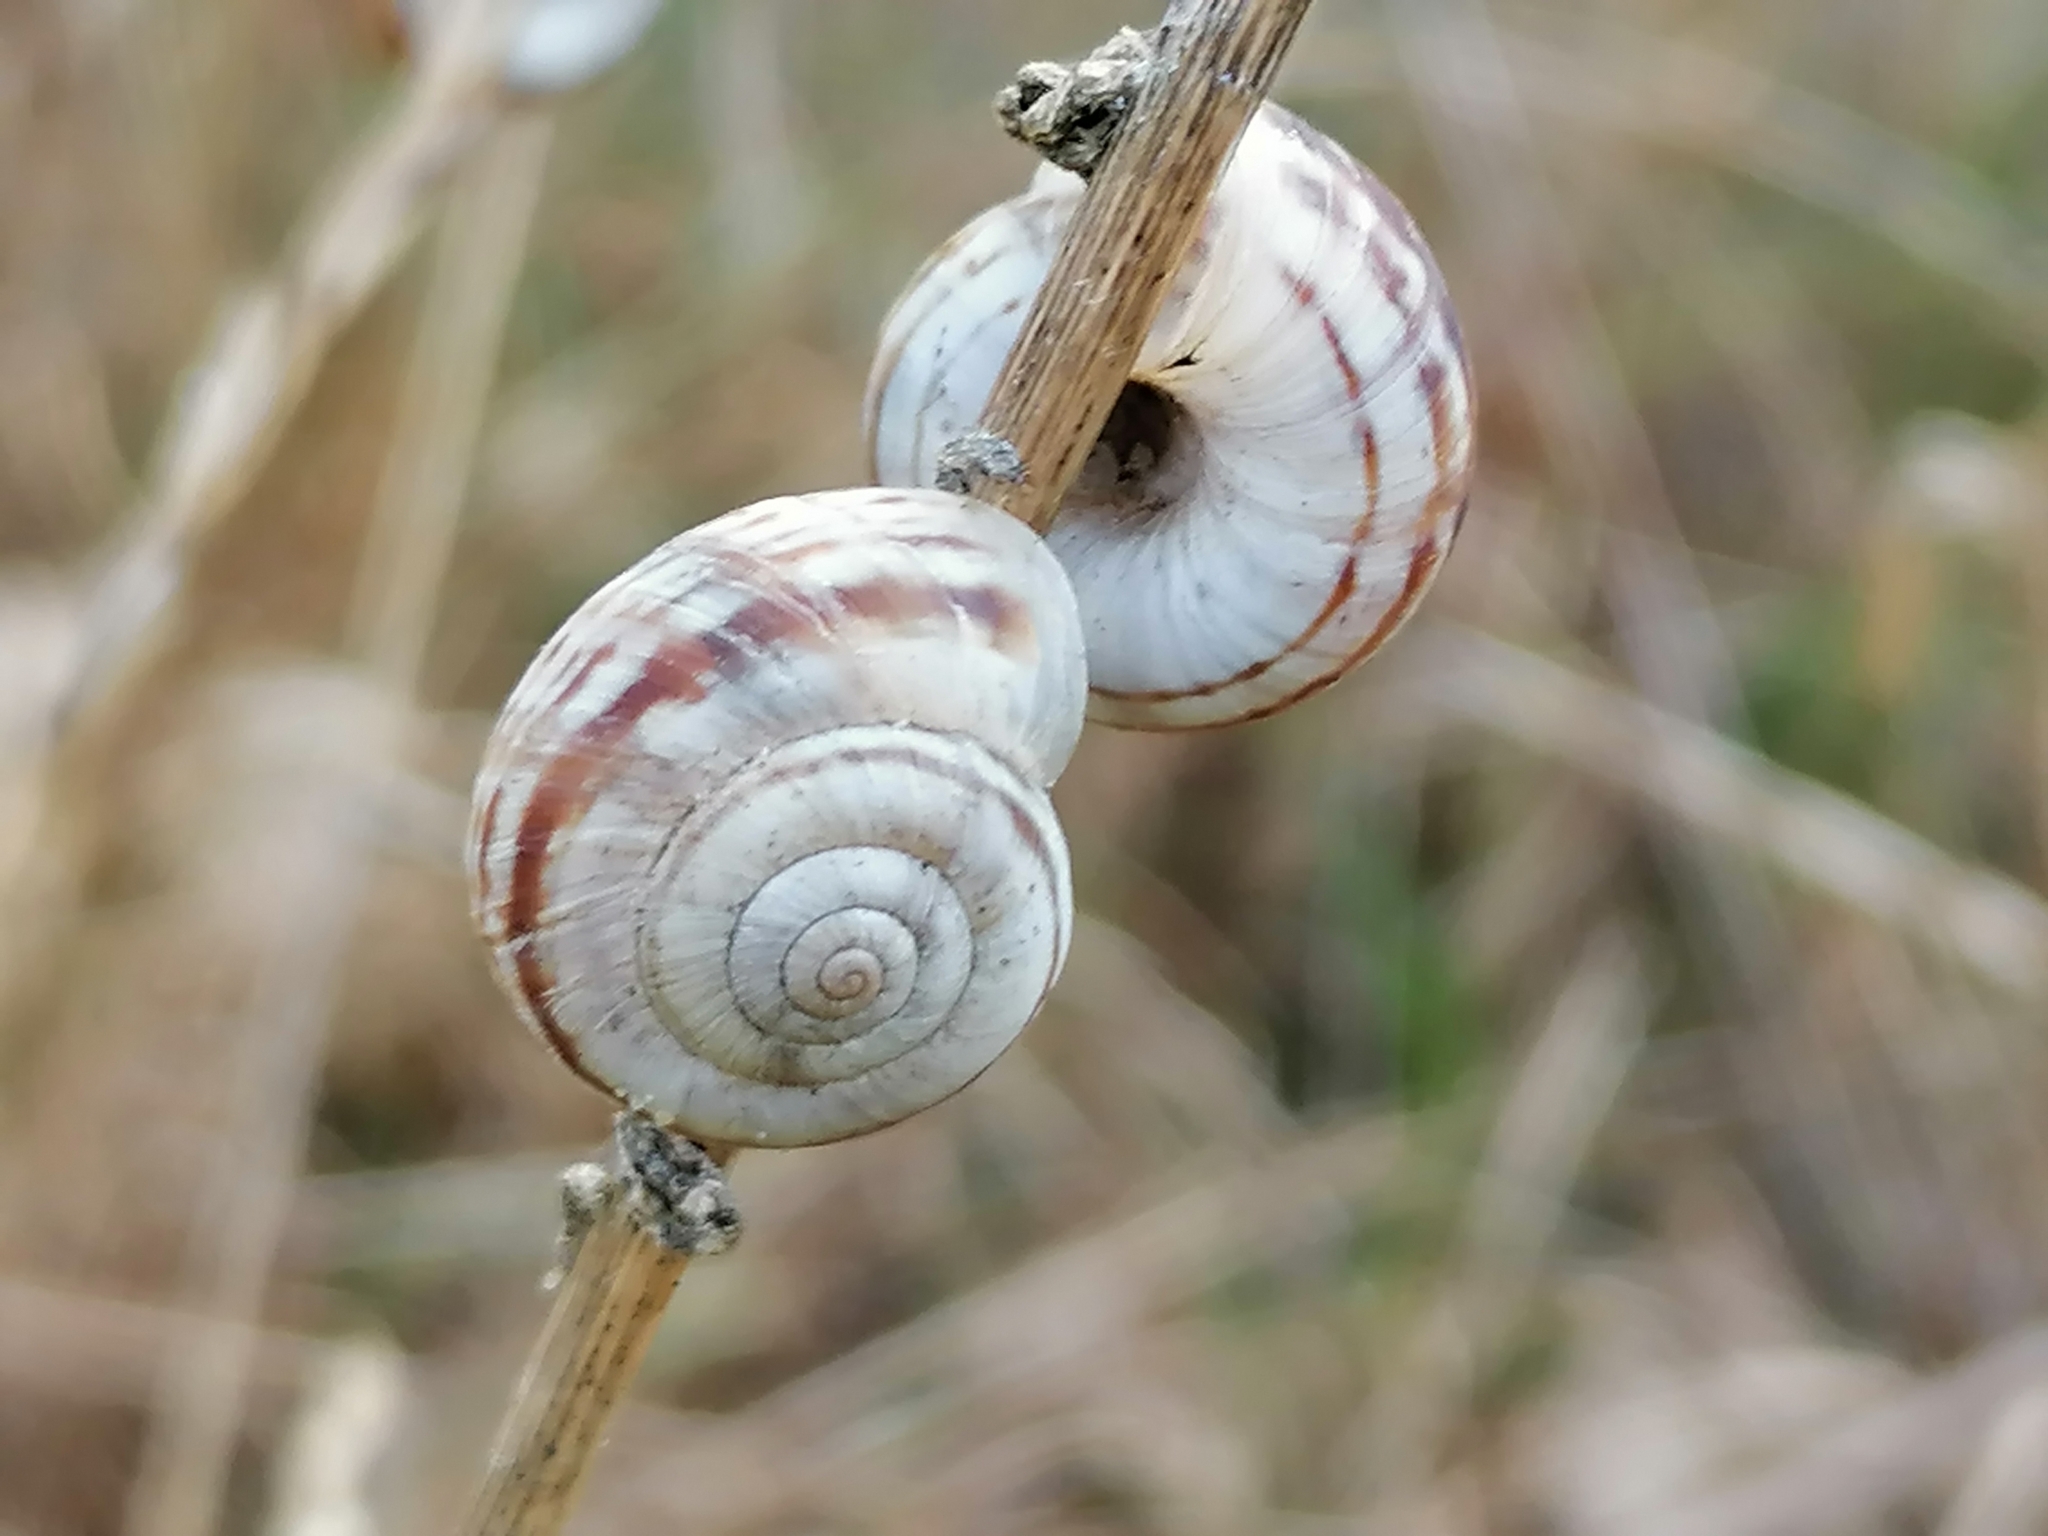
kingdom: Animalia
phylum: Mollusca
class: Gastropoda
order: Stylommatophora
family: Geomitridae
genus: Xerolenta
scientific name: Xerolenta obvia
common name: White heath snail
